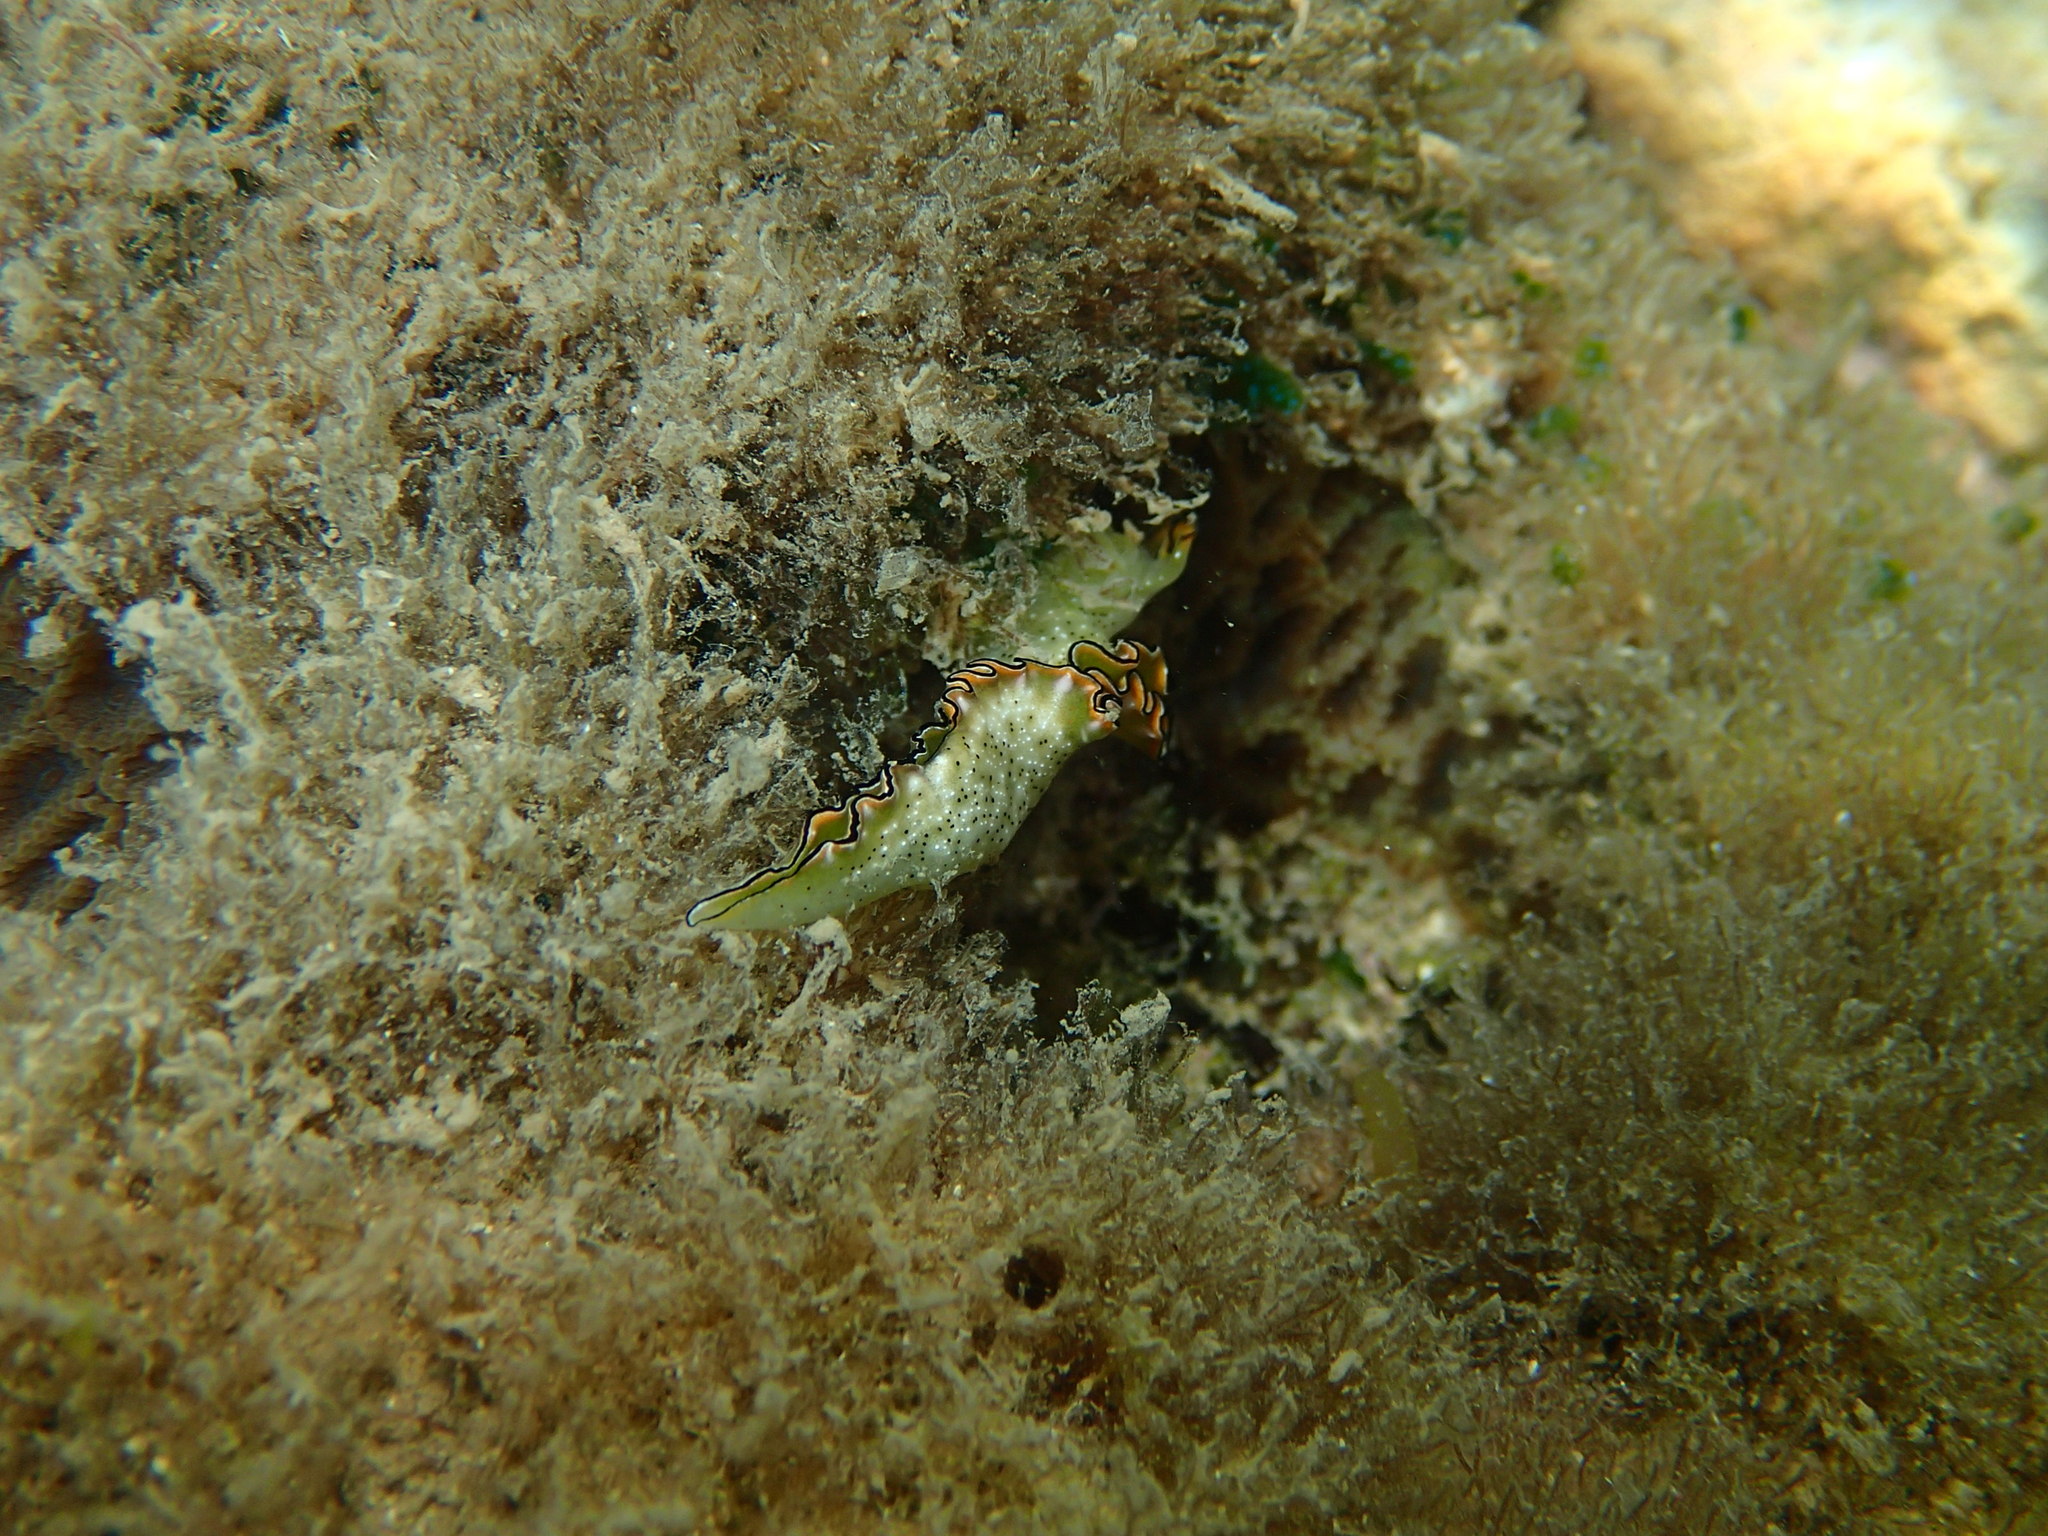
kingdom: Animalia
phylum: Mollusca
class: Gastropoda
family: Plakobranchidae
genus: Elysia
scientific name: Elysia marginata
